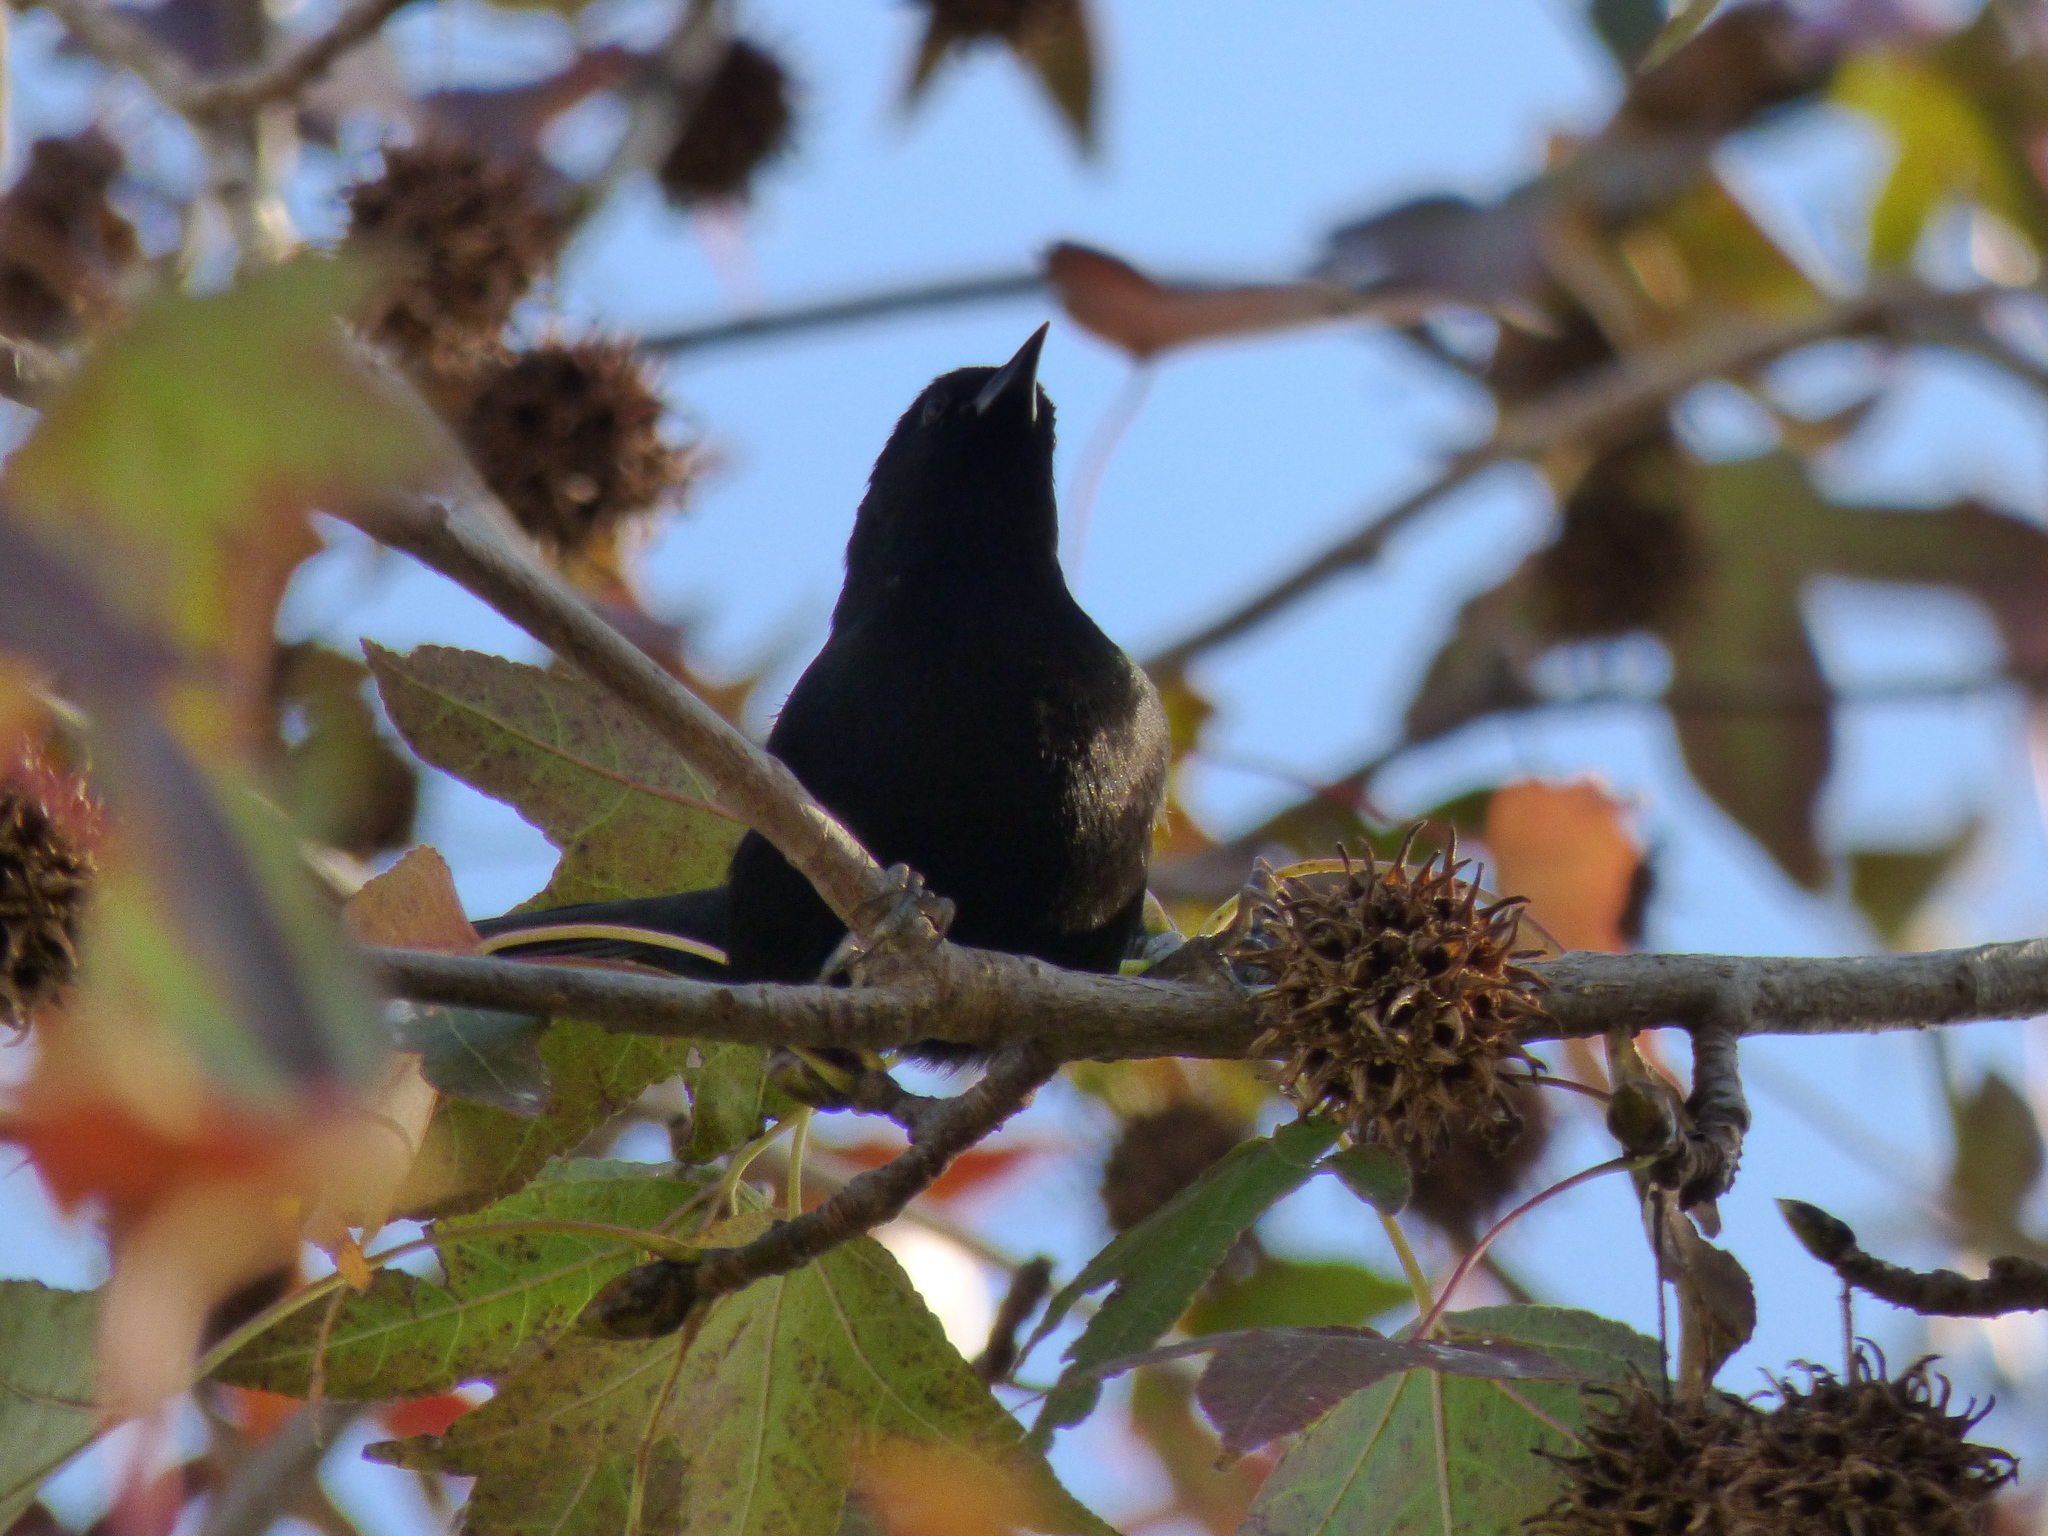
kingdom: Animalia
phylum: Chordata
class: Aves
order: Passeriformes
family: Icteridae
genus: Icterus
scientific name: Icterus cayanensis
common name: Epaulet oriole
